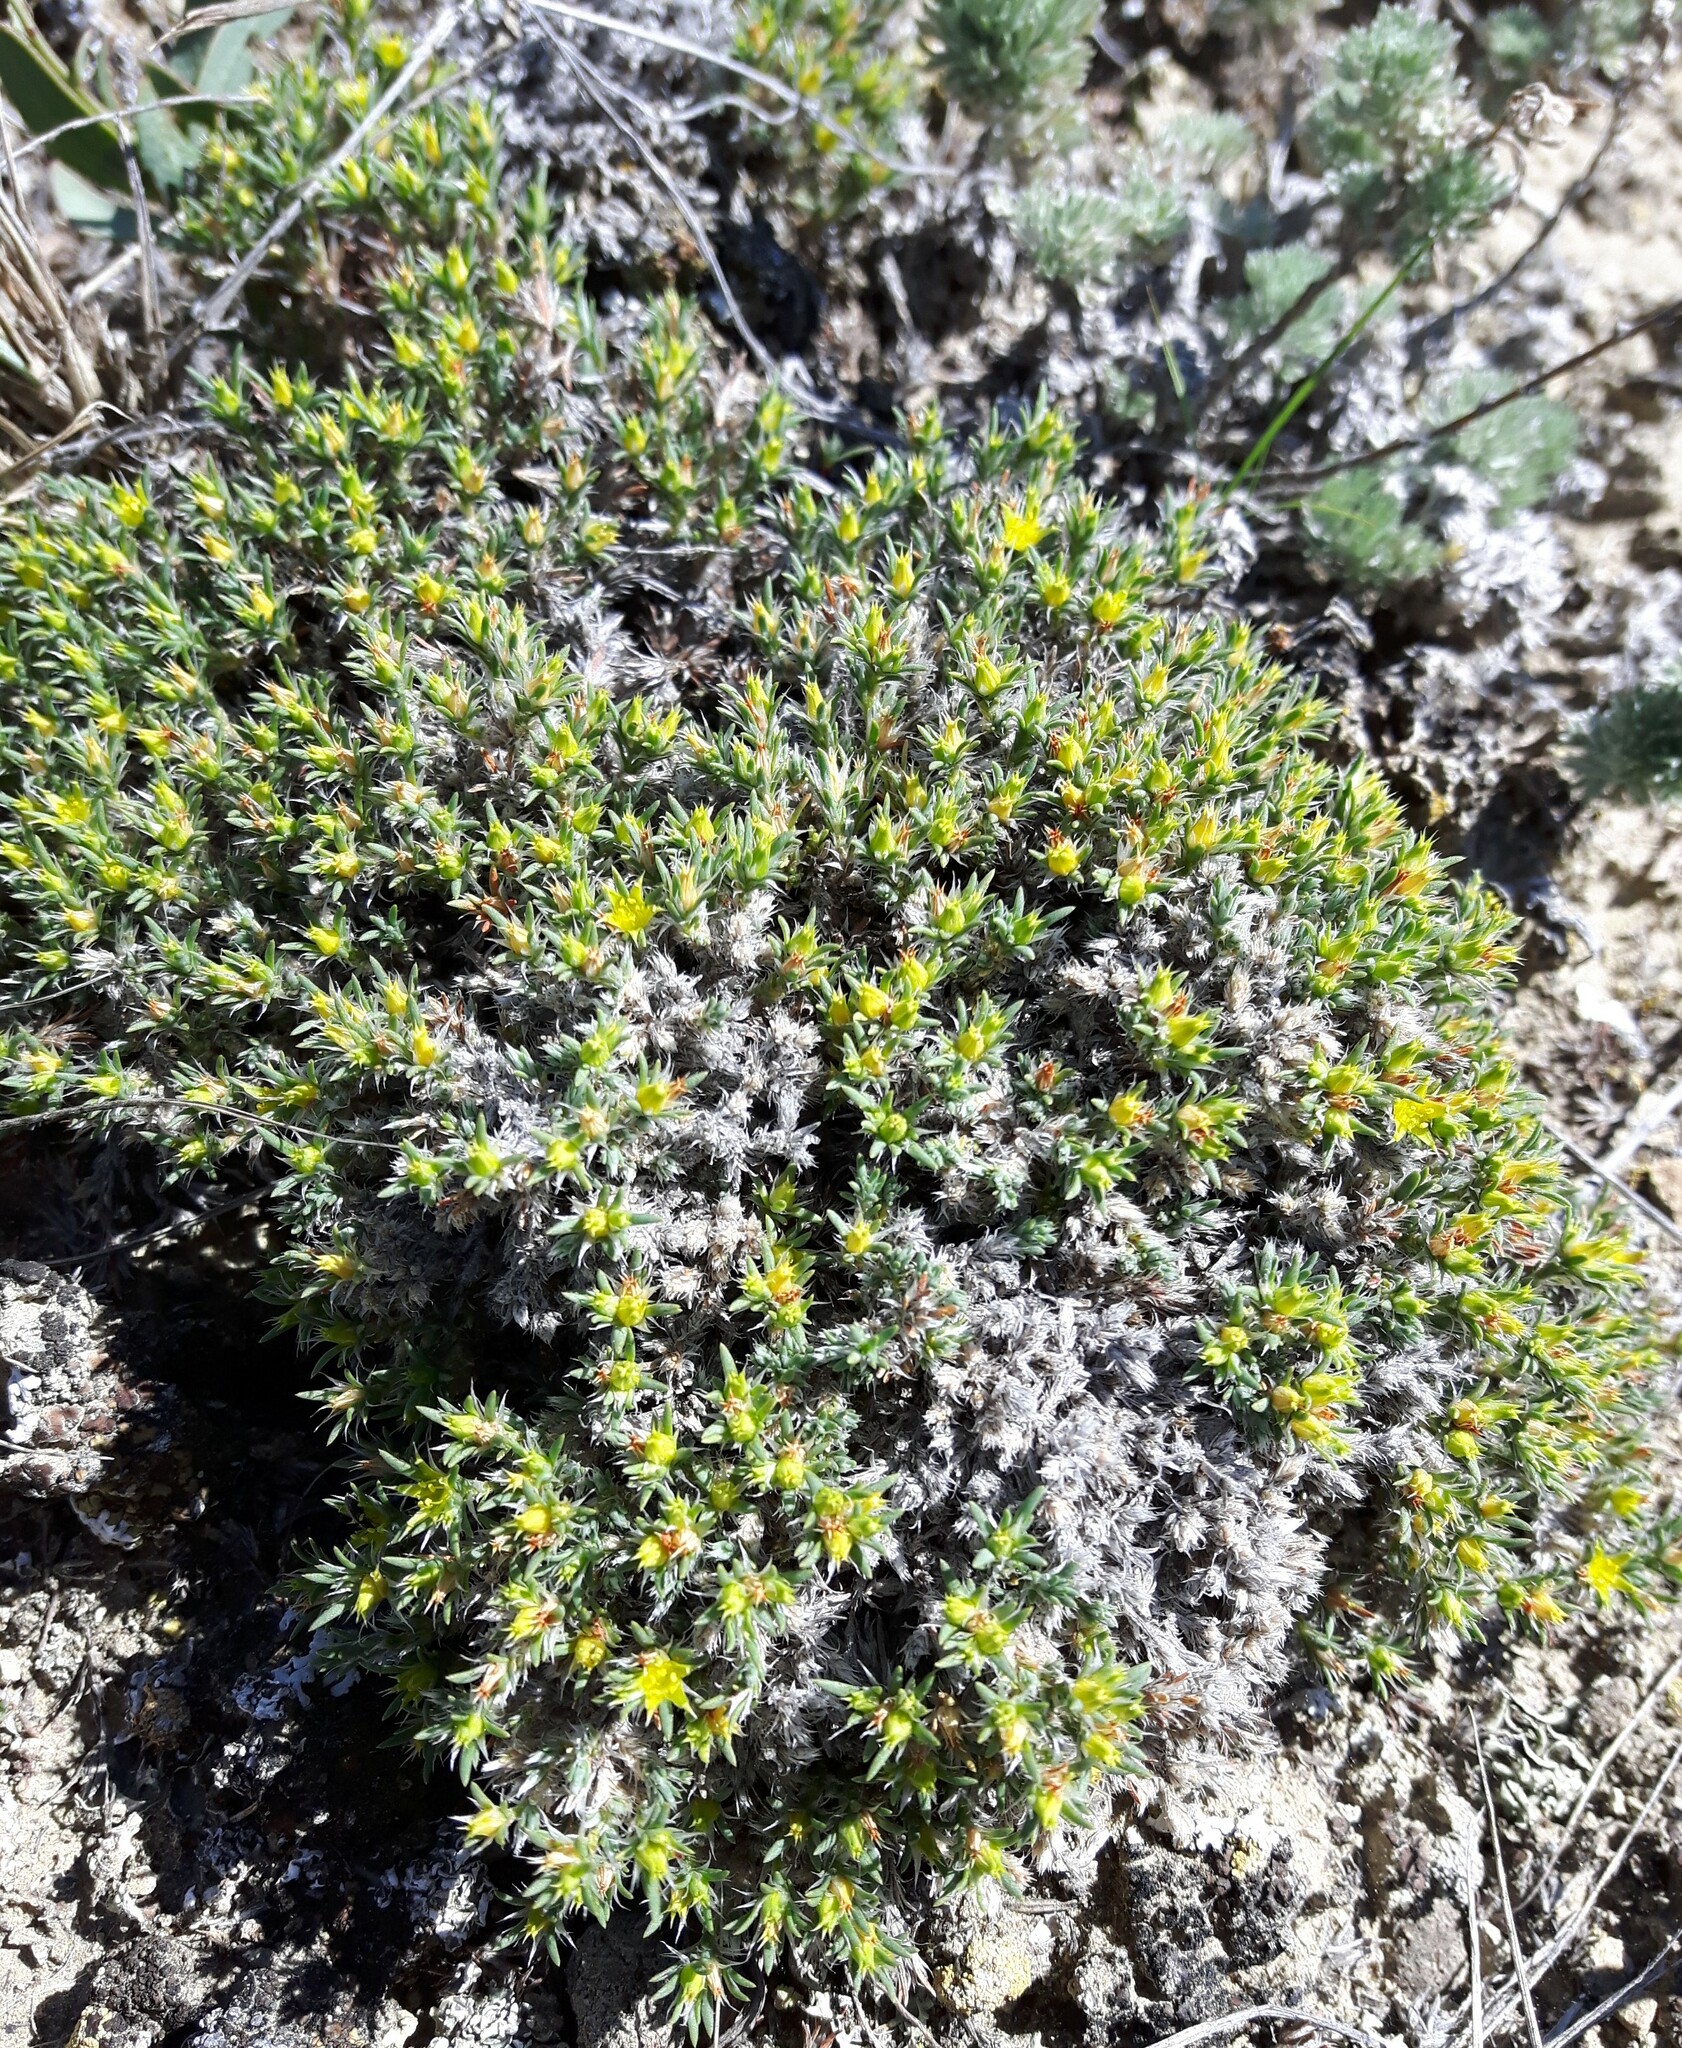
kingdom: Plantae
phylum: Tracheophyta
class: Magnoliopsida
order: Caryophyllales
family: Caryophyllaceae
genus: Paronychia
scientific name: Paronychia sessiliflora
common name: Creeping nailwort
